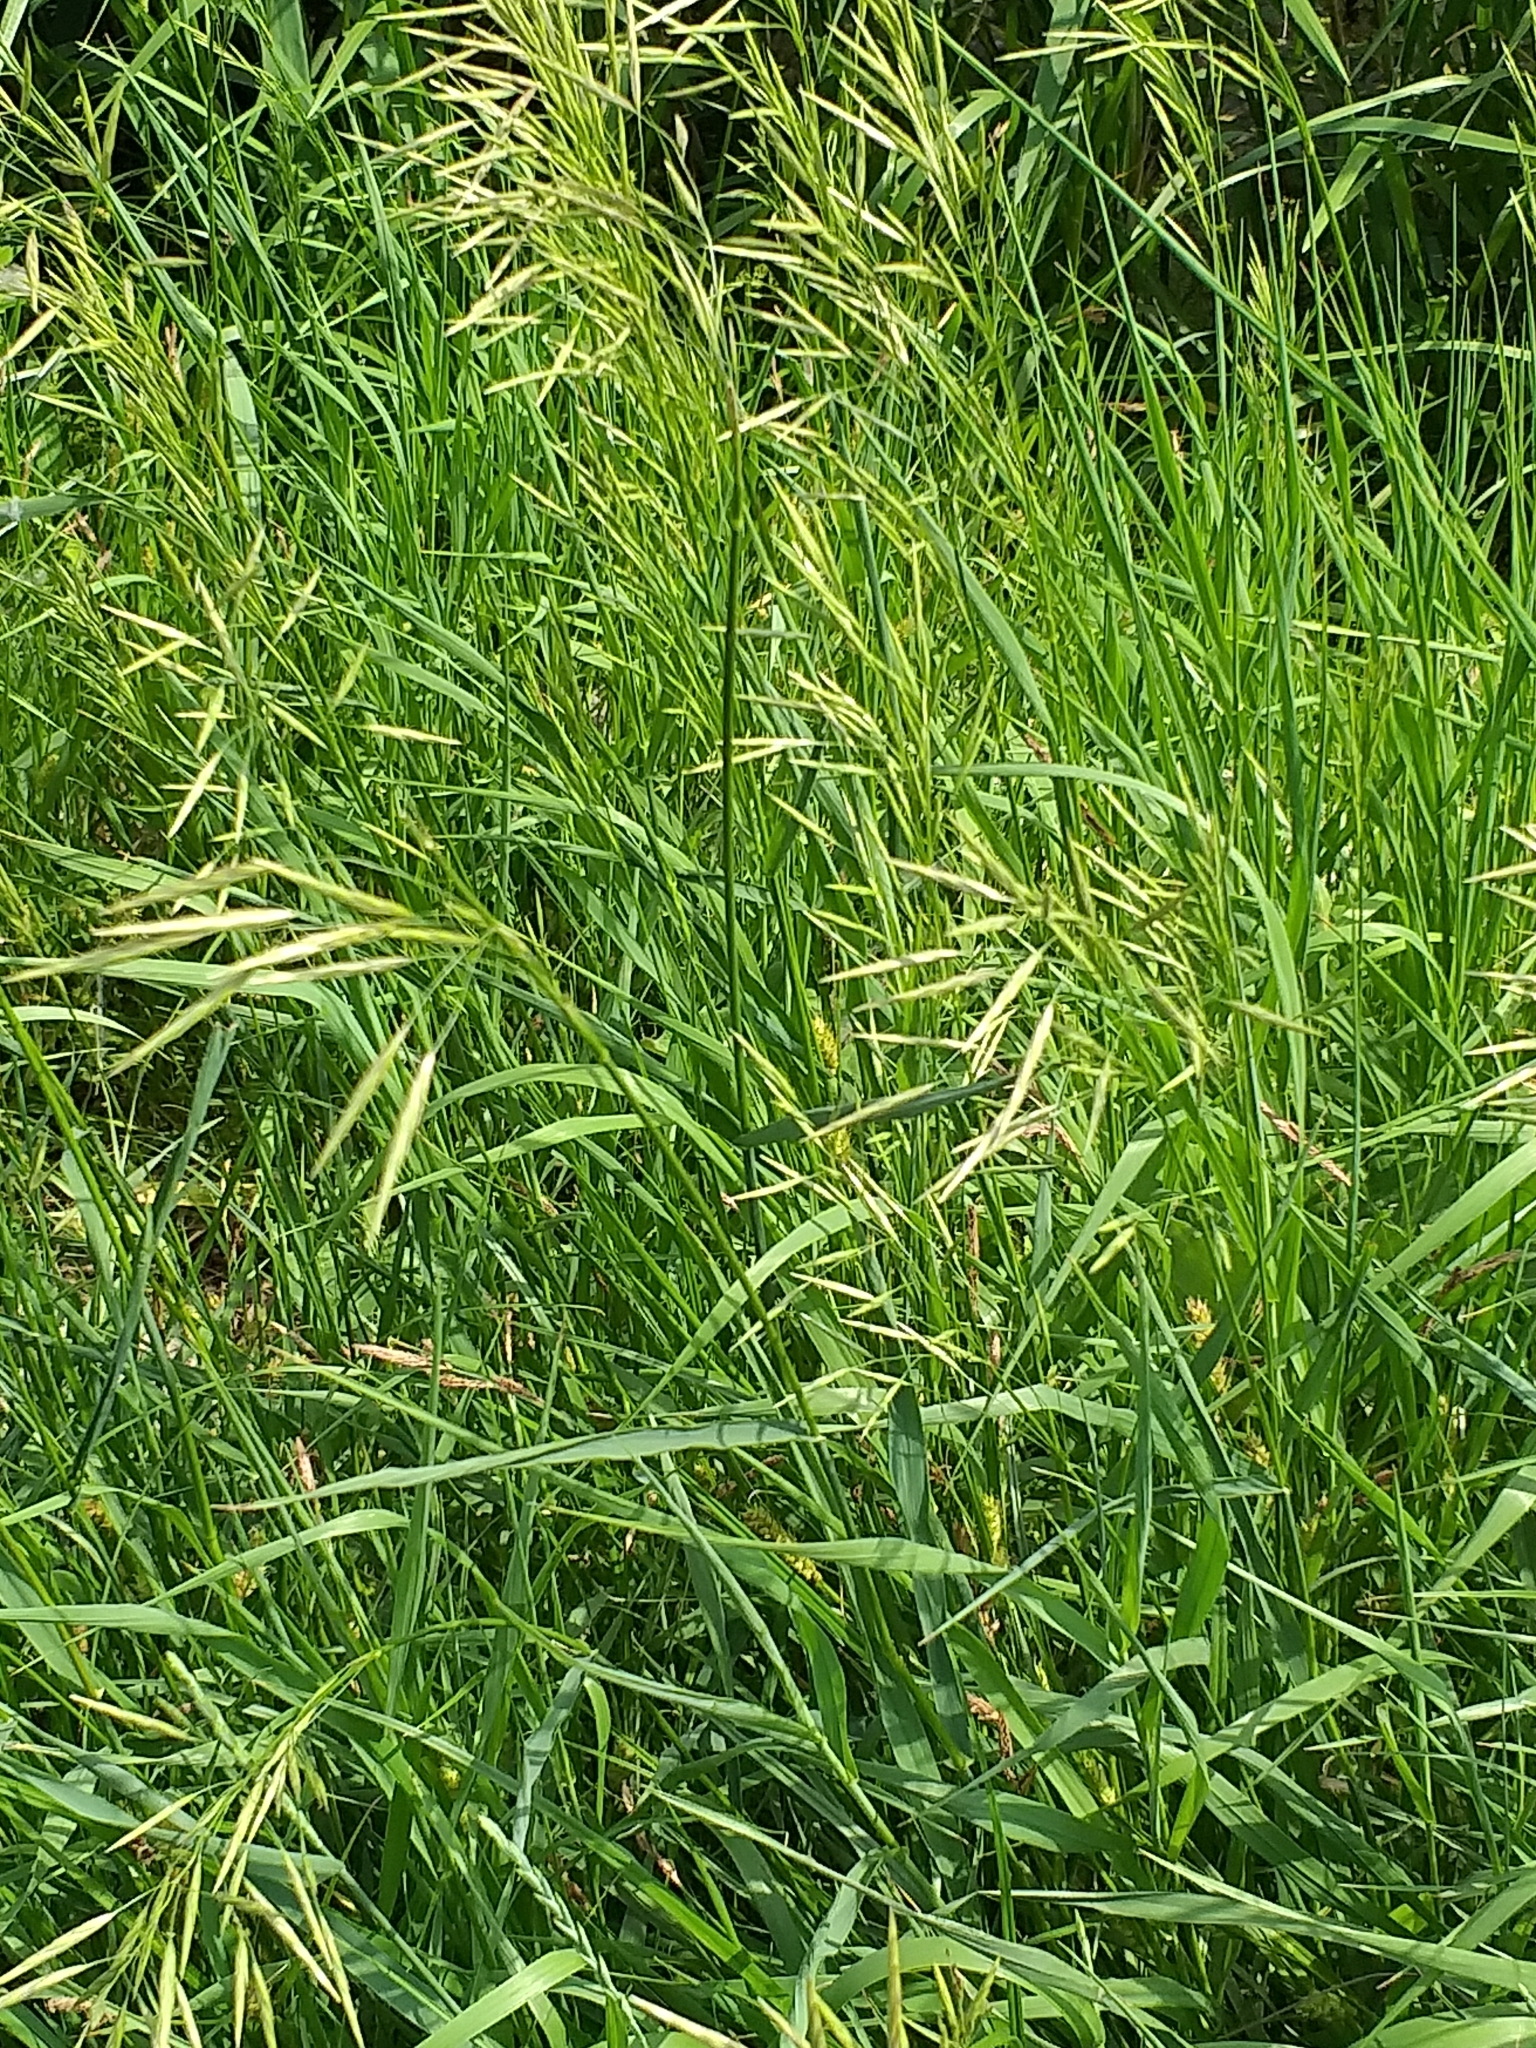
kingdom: Plantae
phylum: Tracheophyta
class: Liliopsida
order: Poales
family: Poaceae
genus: Bromus
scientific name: Bromus inermis
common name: Smooth brome
